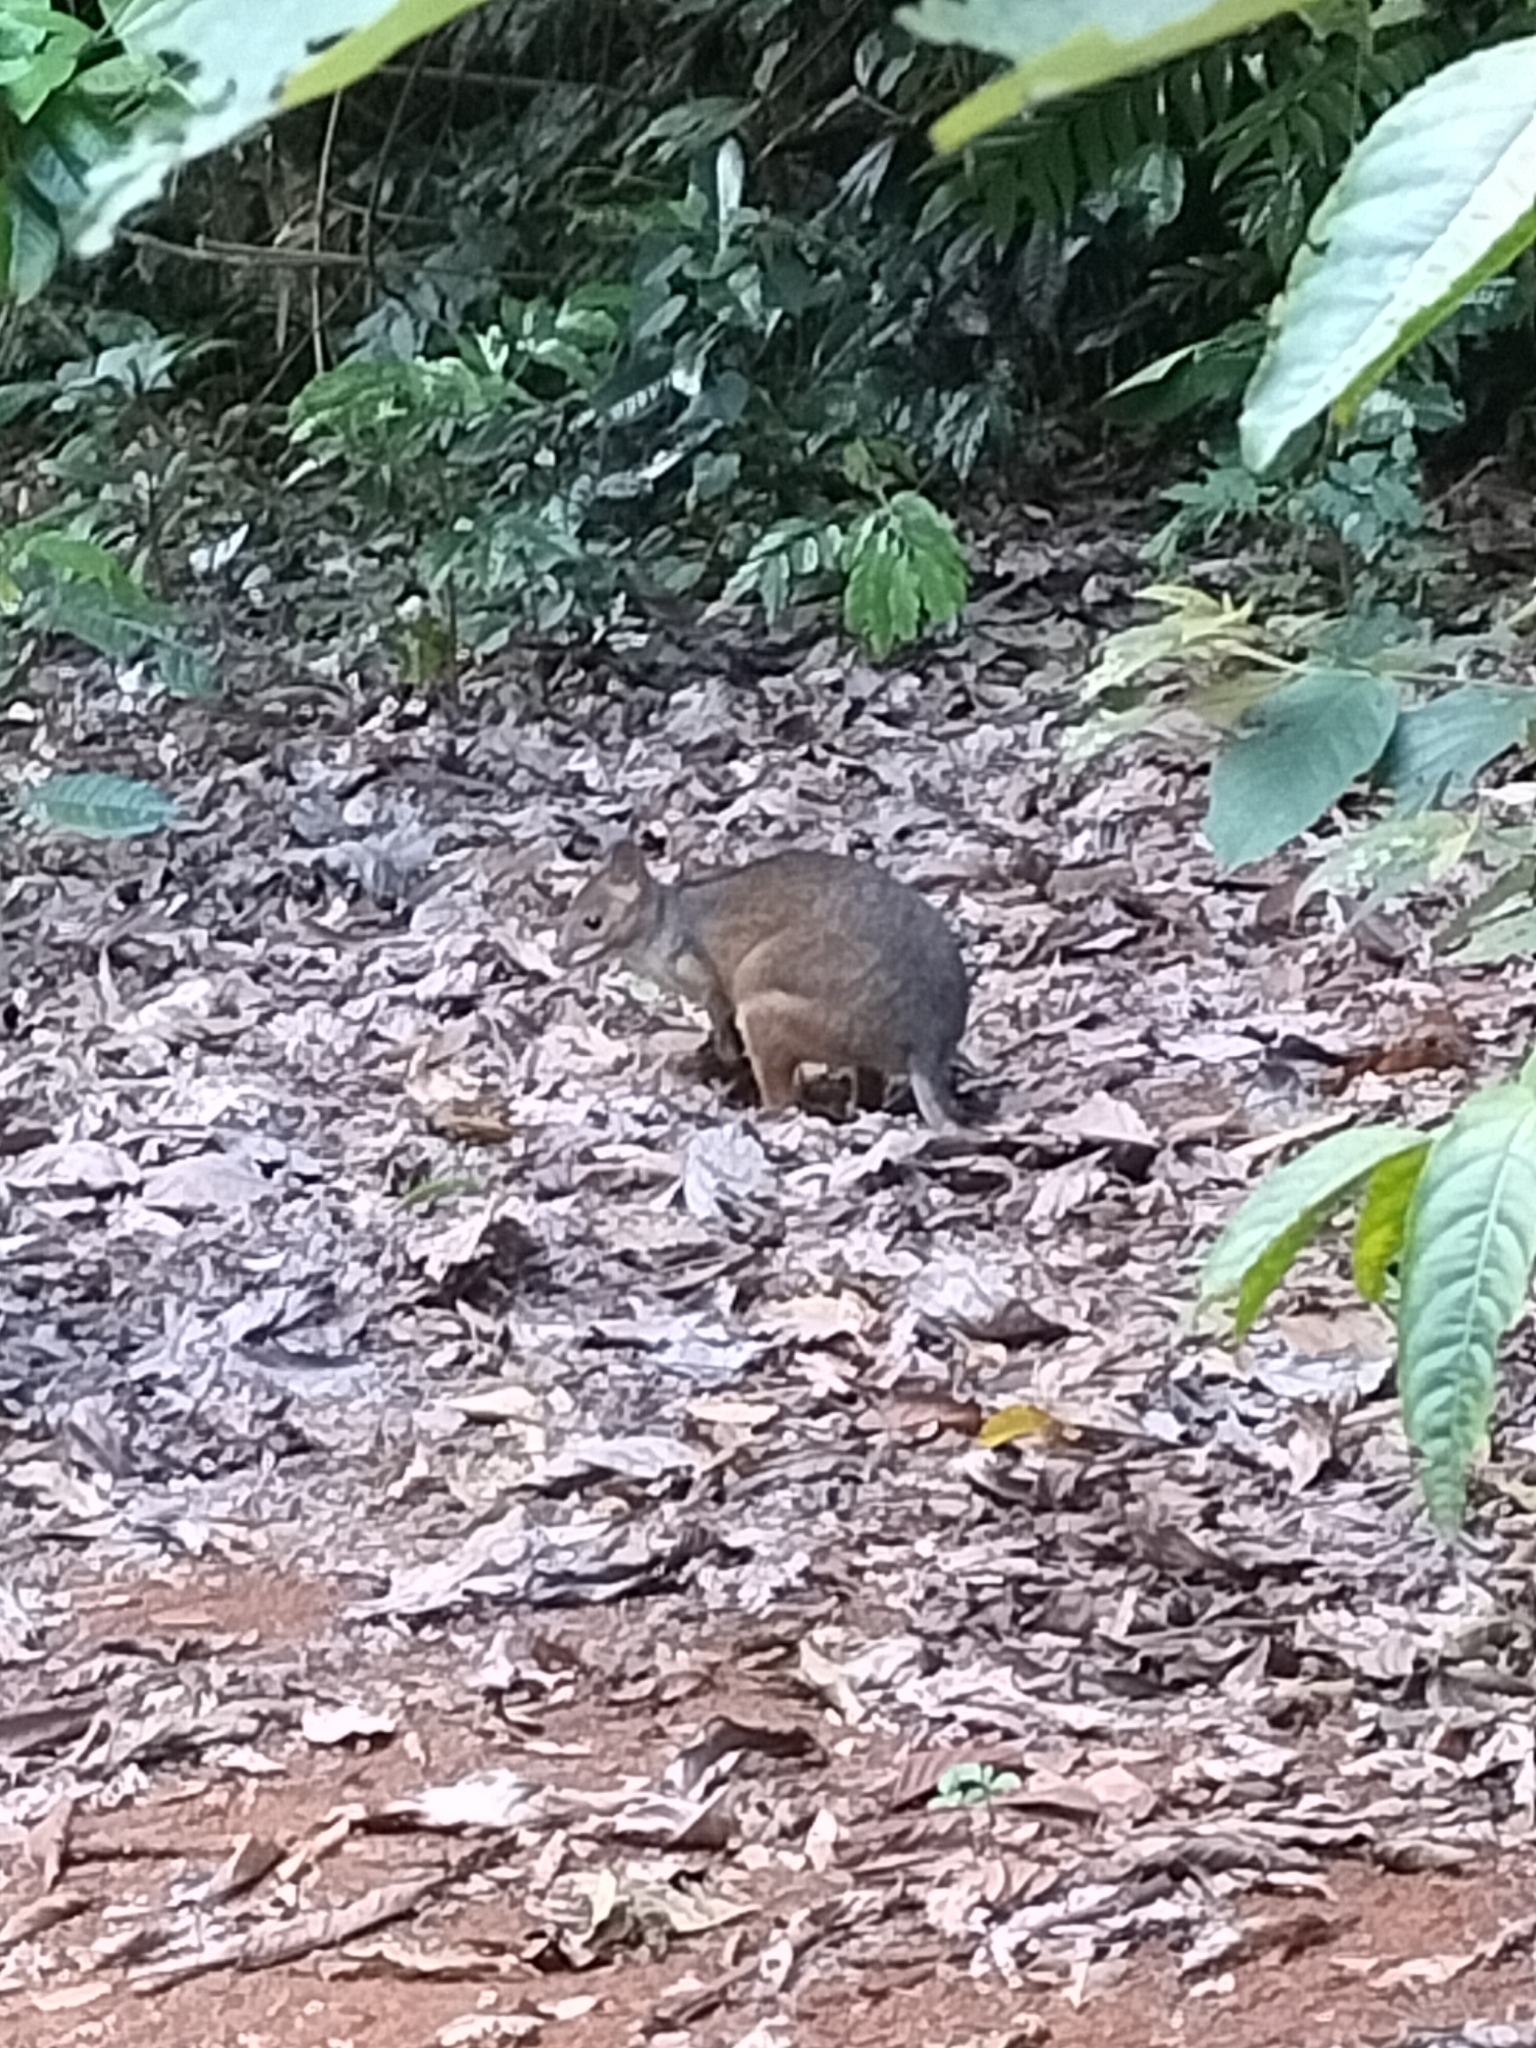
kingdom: Animalia
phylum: Chordata
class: Mammalia
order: Diprotodontia
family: Macropodidae
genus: Thylogale
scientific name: Thylogale stigmatica
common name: Red-legged pademelon
